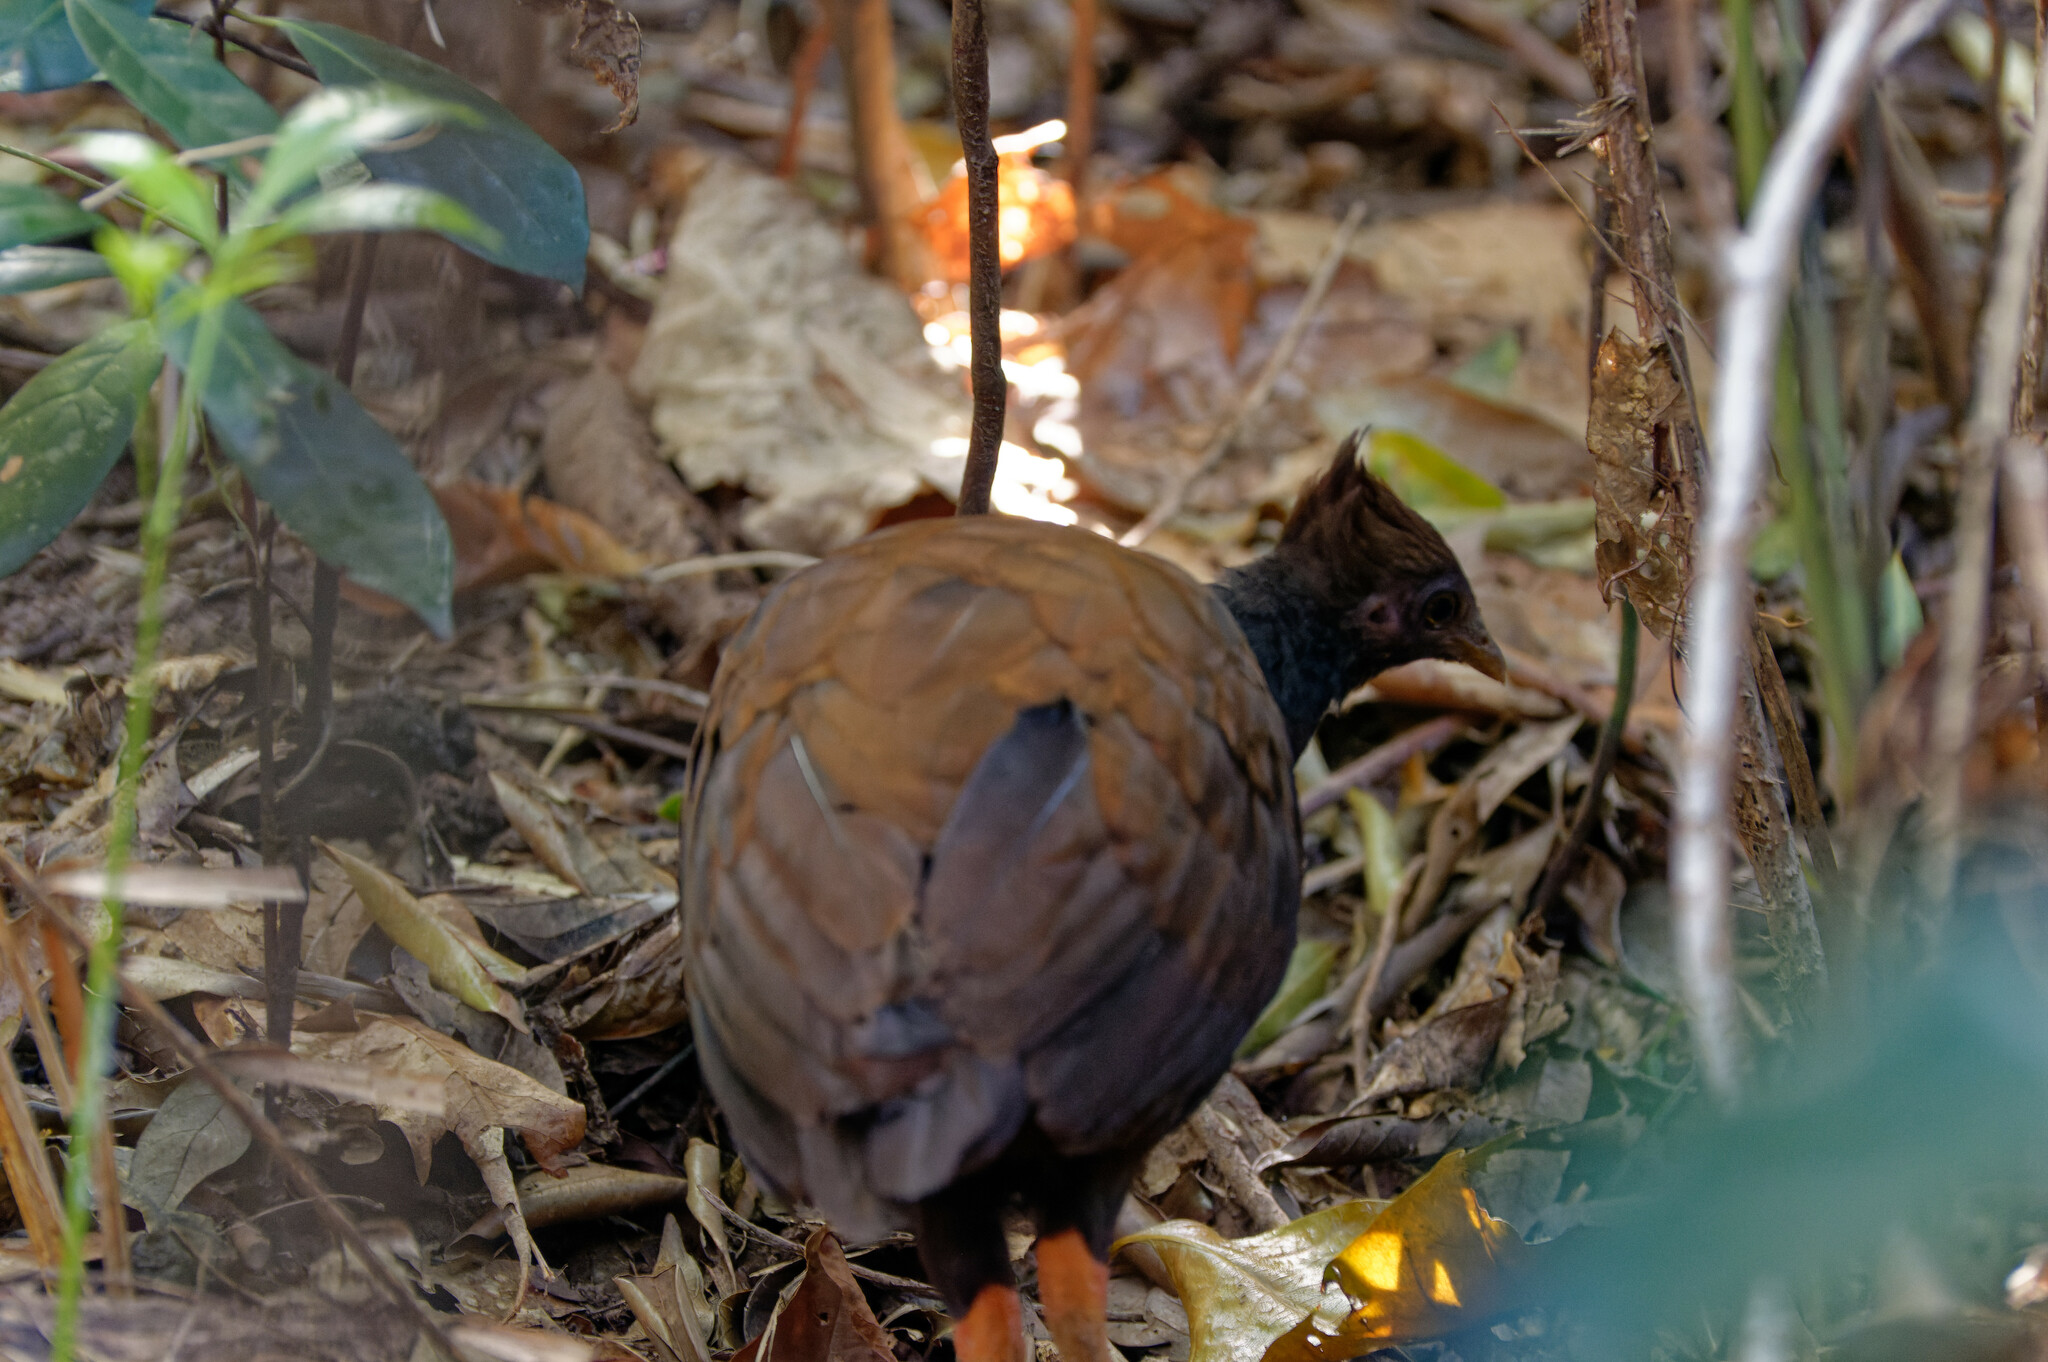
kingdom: Animalia
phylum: Chordata
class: Aves
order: Galliformes
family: Megapodiidae
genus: Megapodius
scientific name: Megapodius reinwardt
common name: Orange-footed scrubfowl
